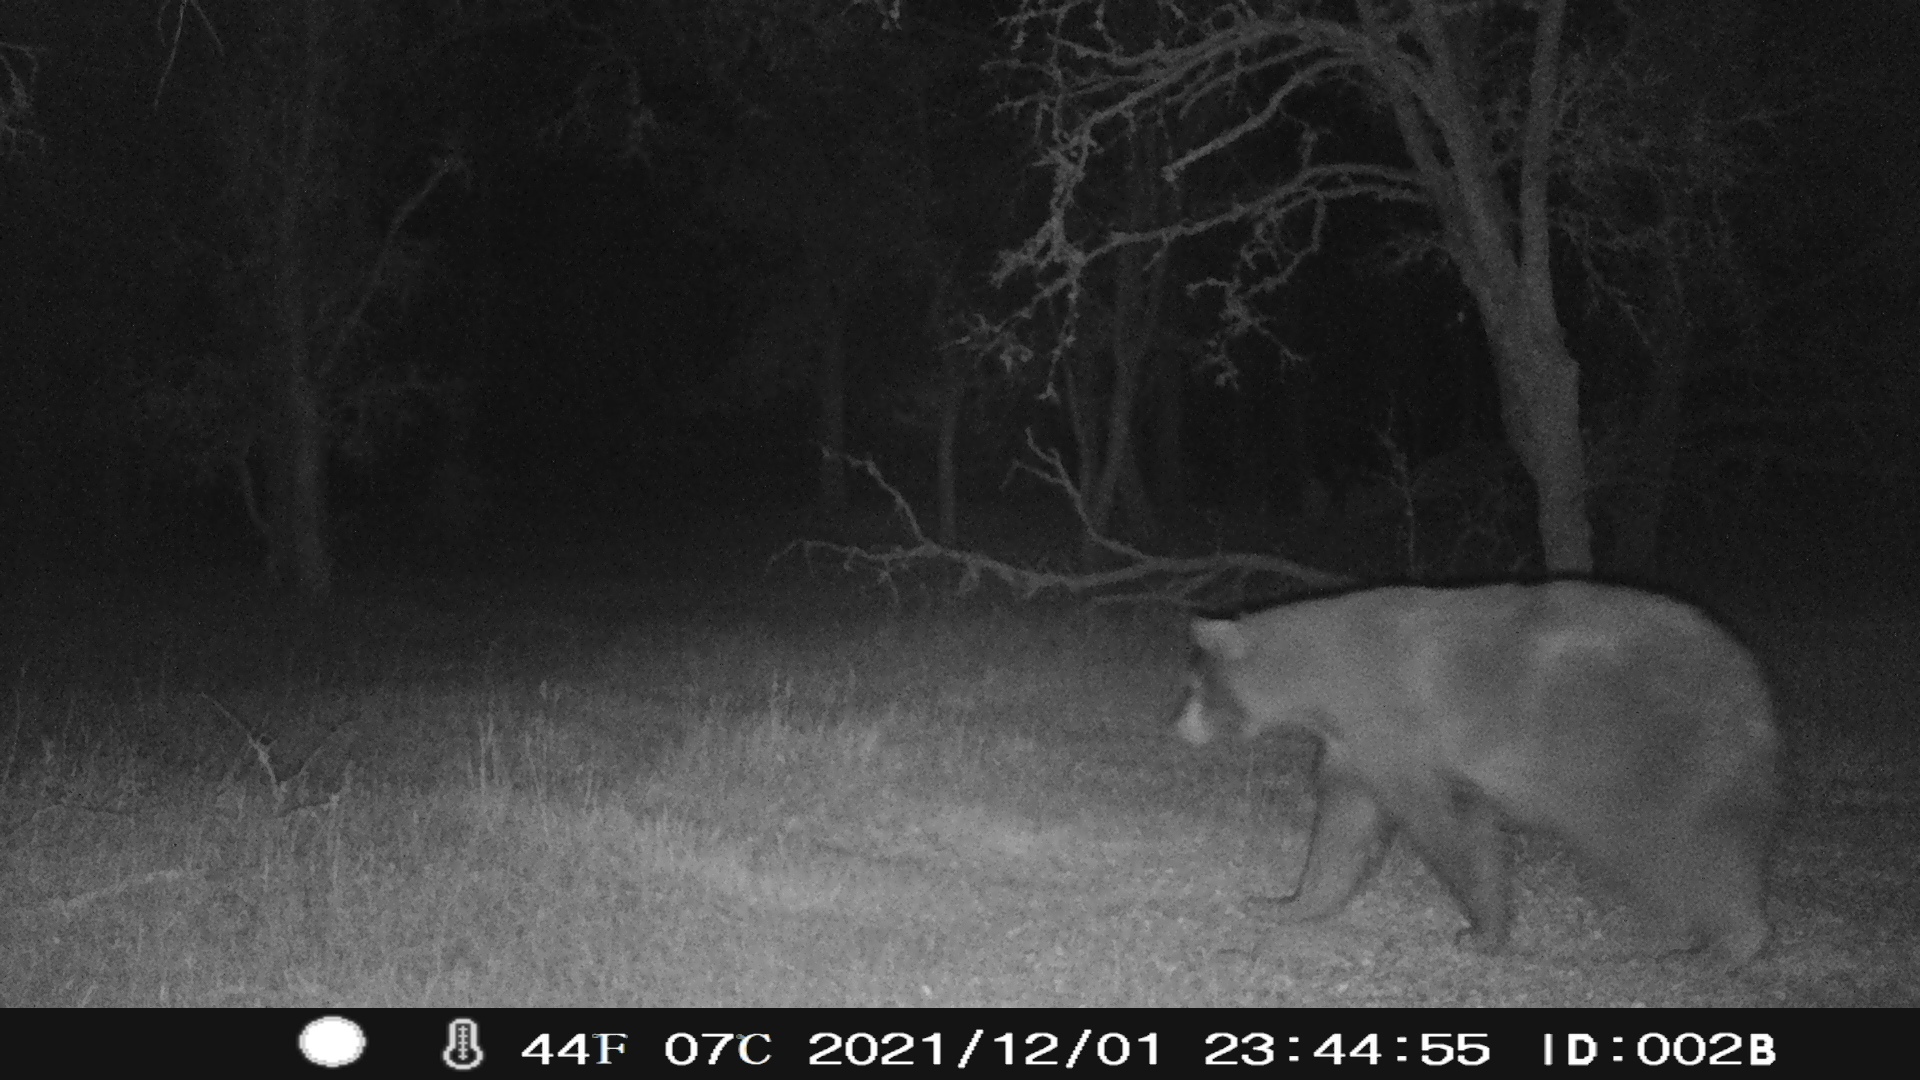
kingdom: Animalia
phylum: Chordata
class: Mammalia
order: Carnivora
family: Ursidae
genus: Ursus
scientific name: Ursus americanus
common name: American black bear
